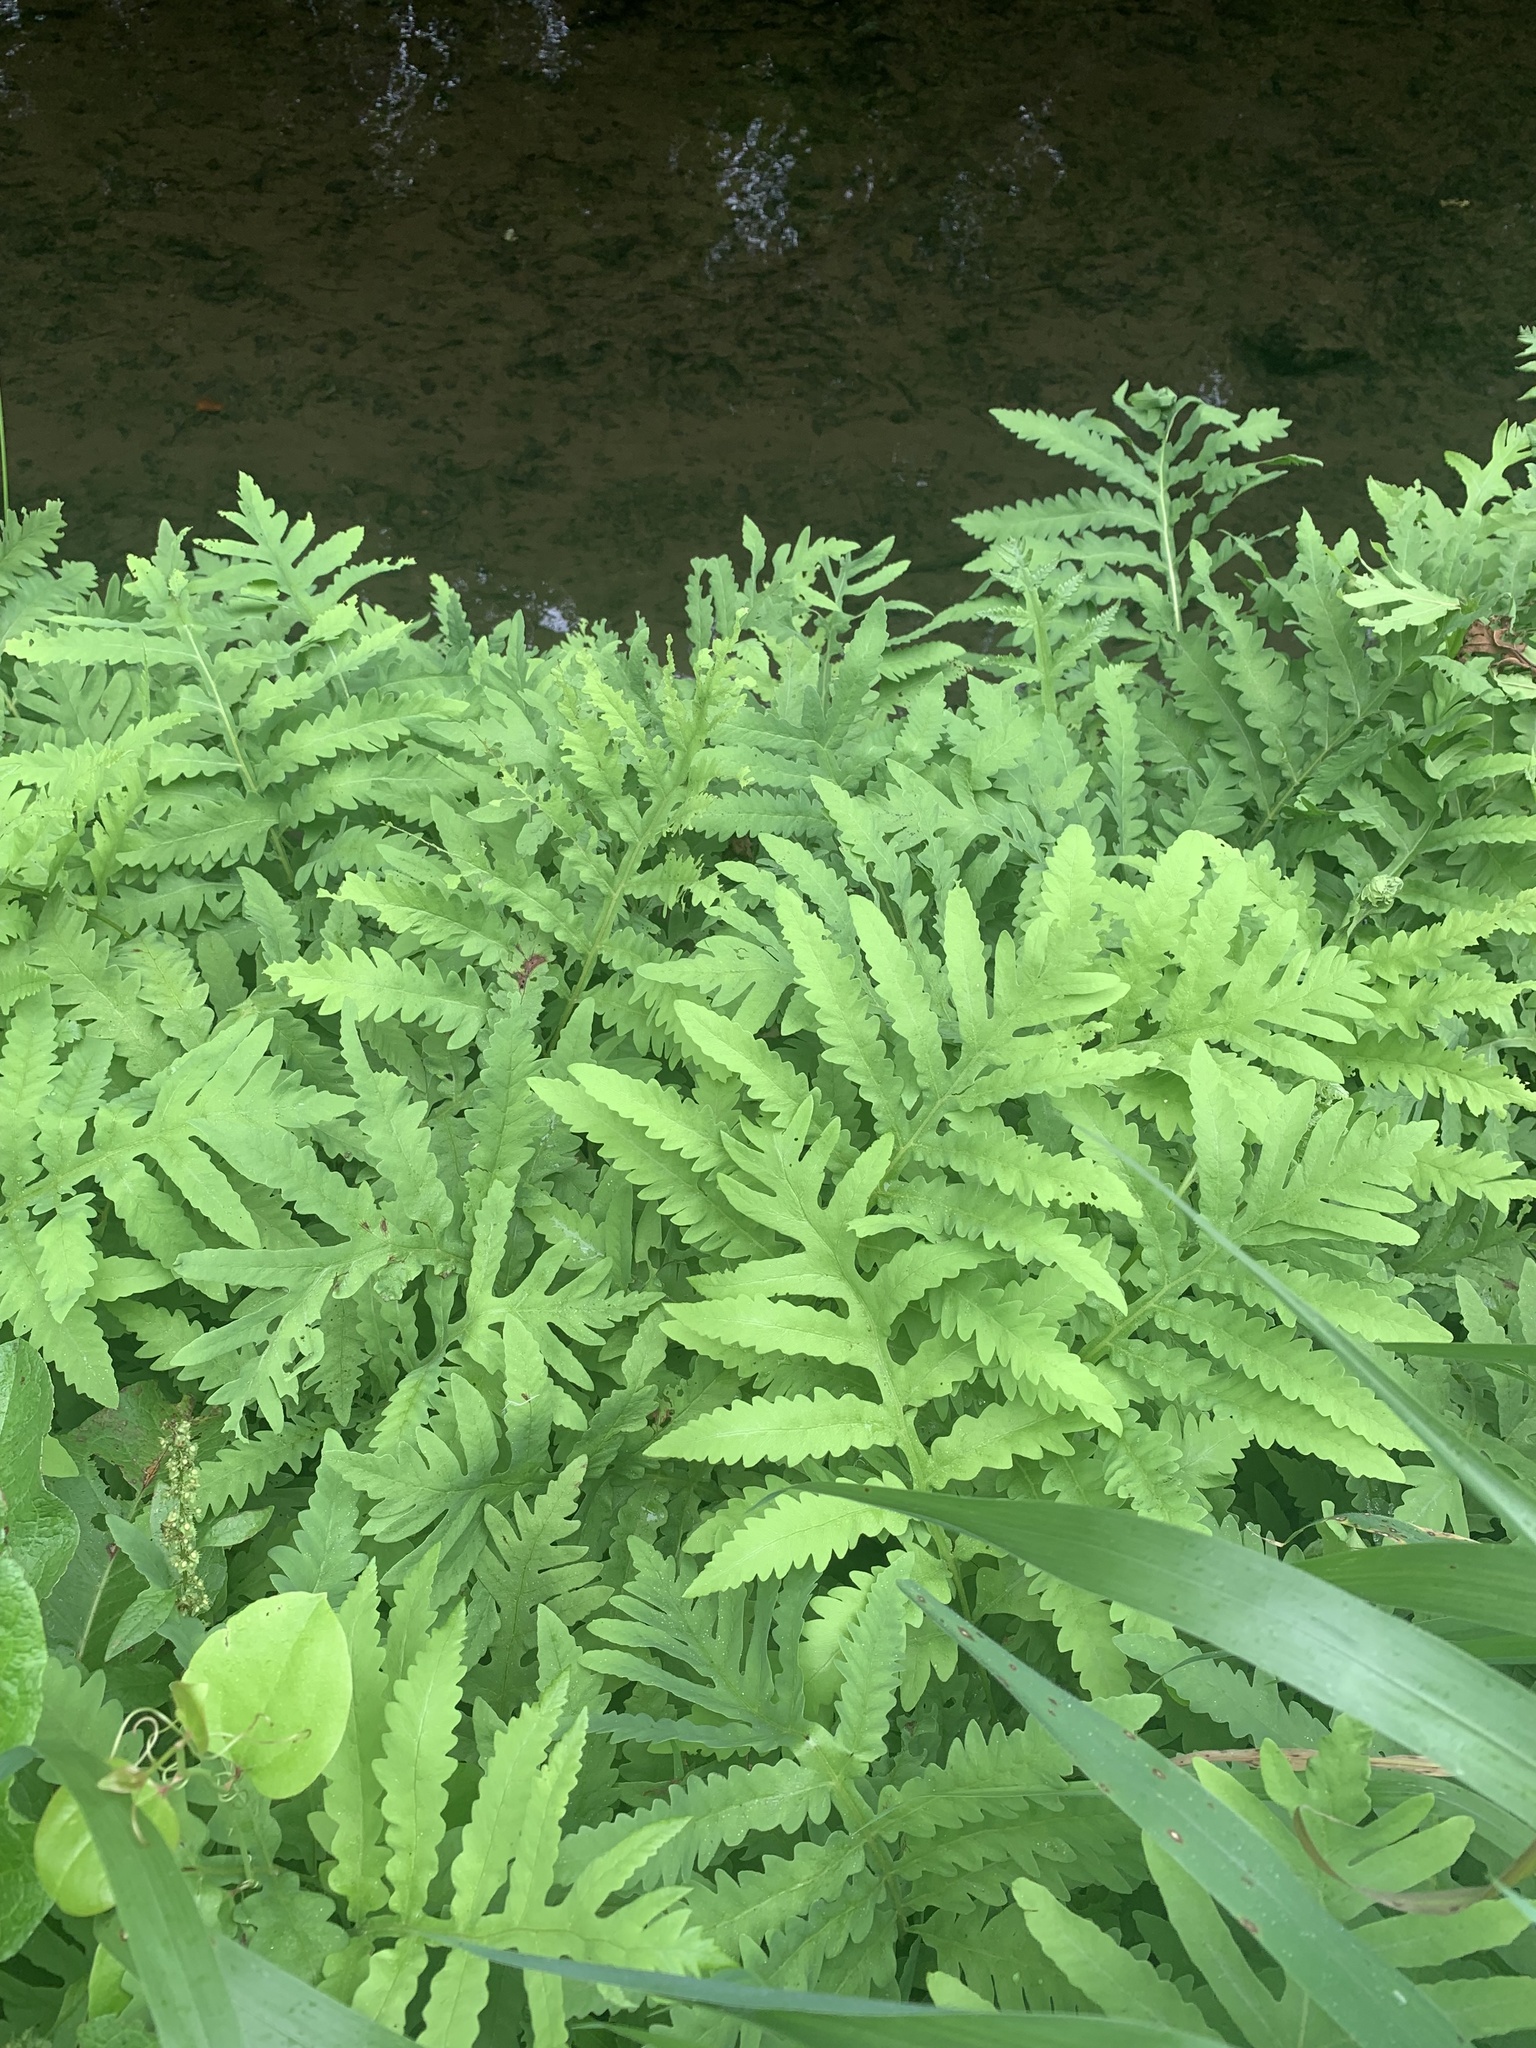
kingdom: Plantae
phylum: Tracheophyta
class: Polypodiopsida
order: Polypodiales
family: Onocleaceae
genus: Onoclea
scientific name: Onoclea sensibilis
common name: Sensitive fern
